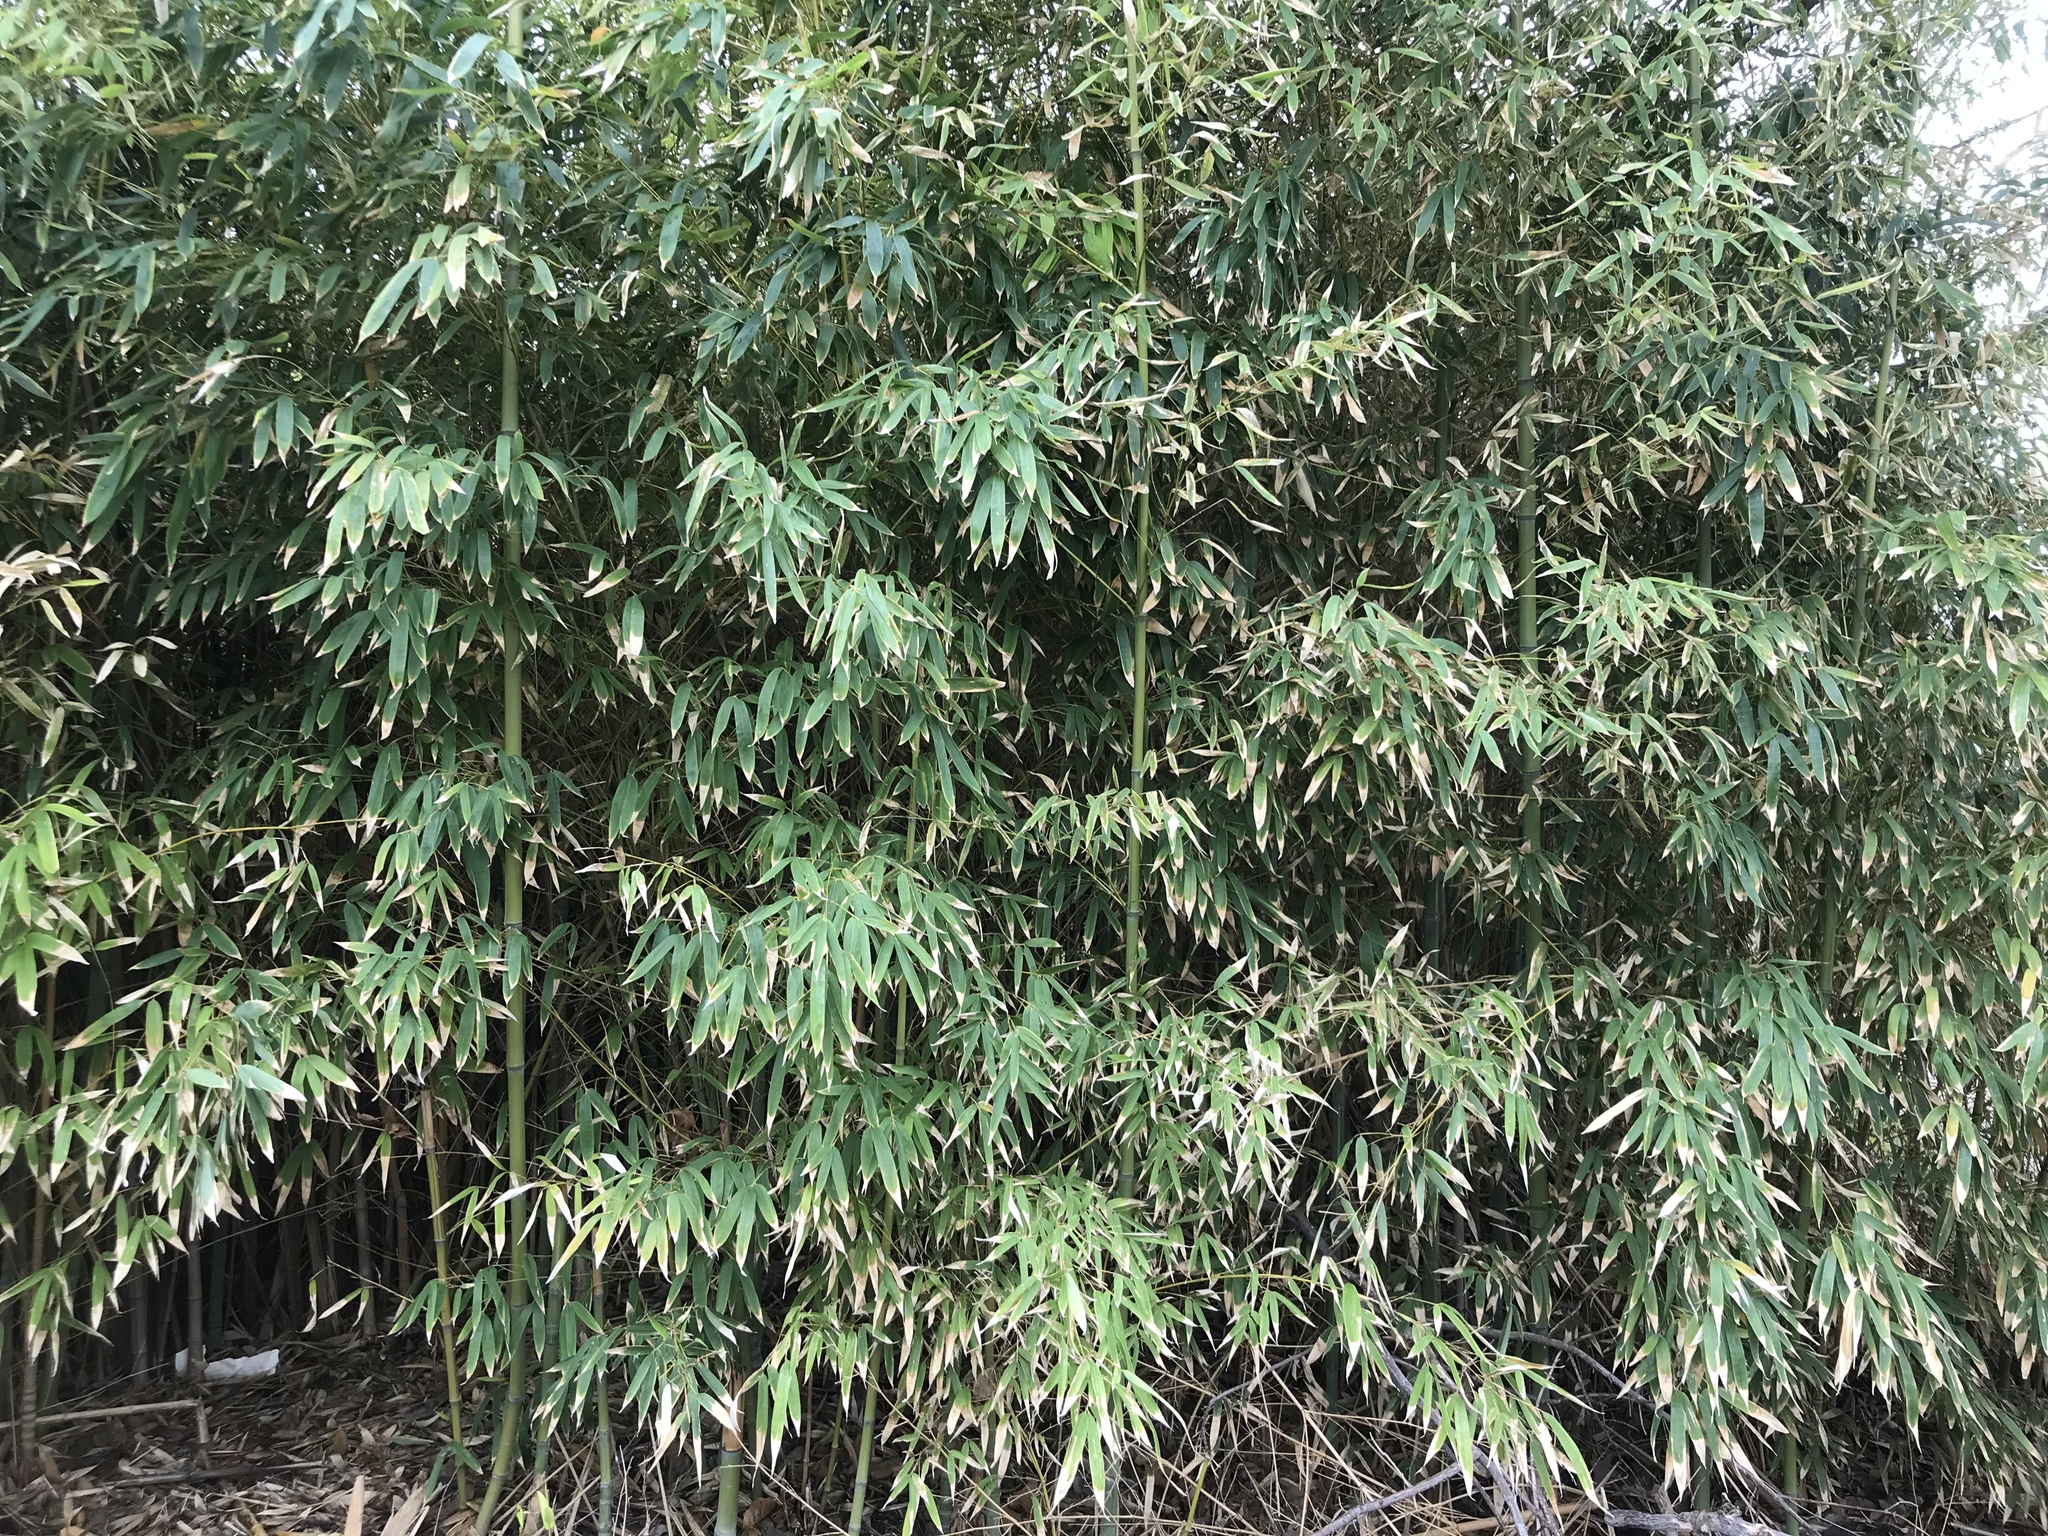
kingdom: Plantae
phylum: Tracheophyta
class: Liliopsida
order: Poales
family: Poaceae
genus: Phyllostachys
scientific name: Phyllostachys aurea
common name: Golden bamboo
